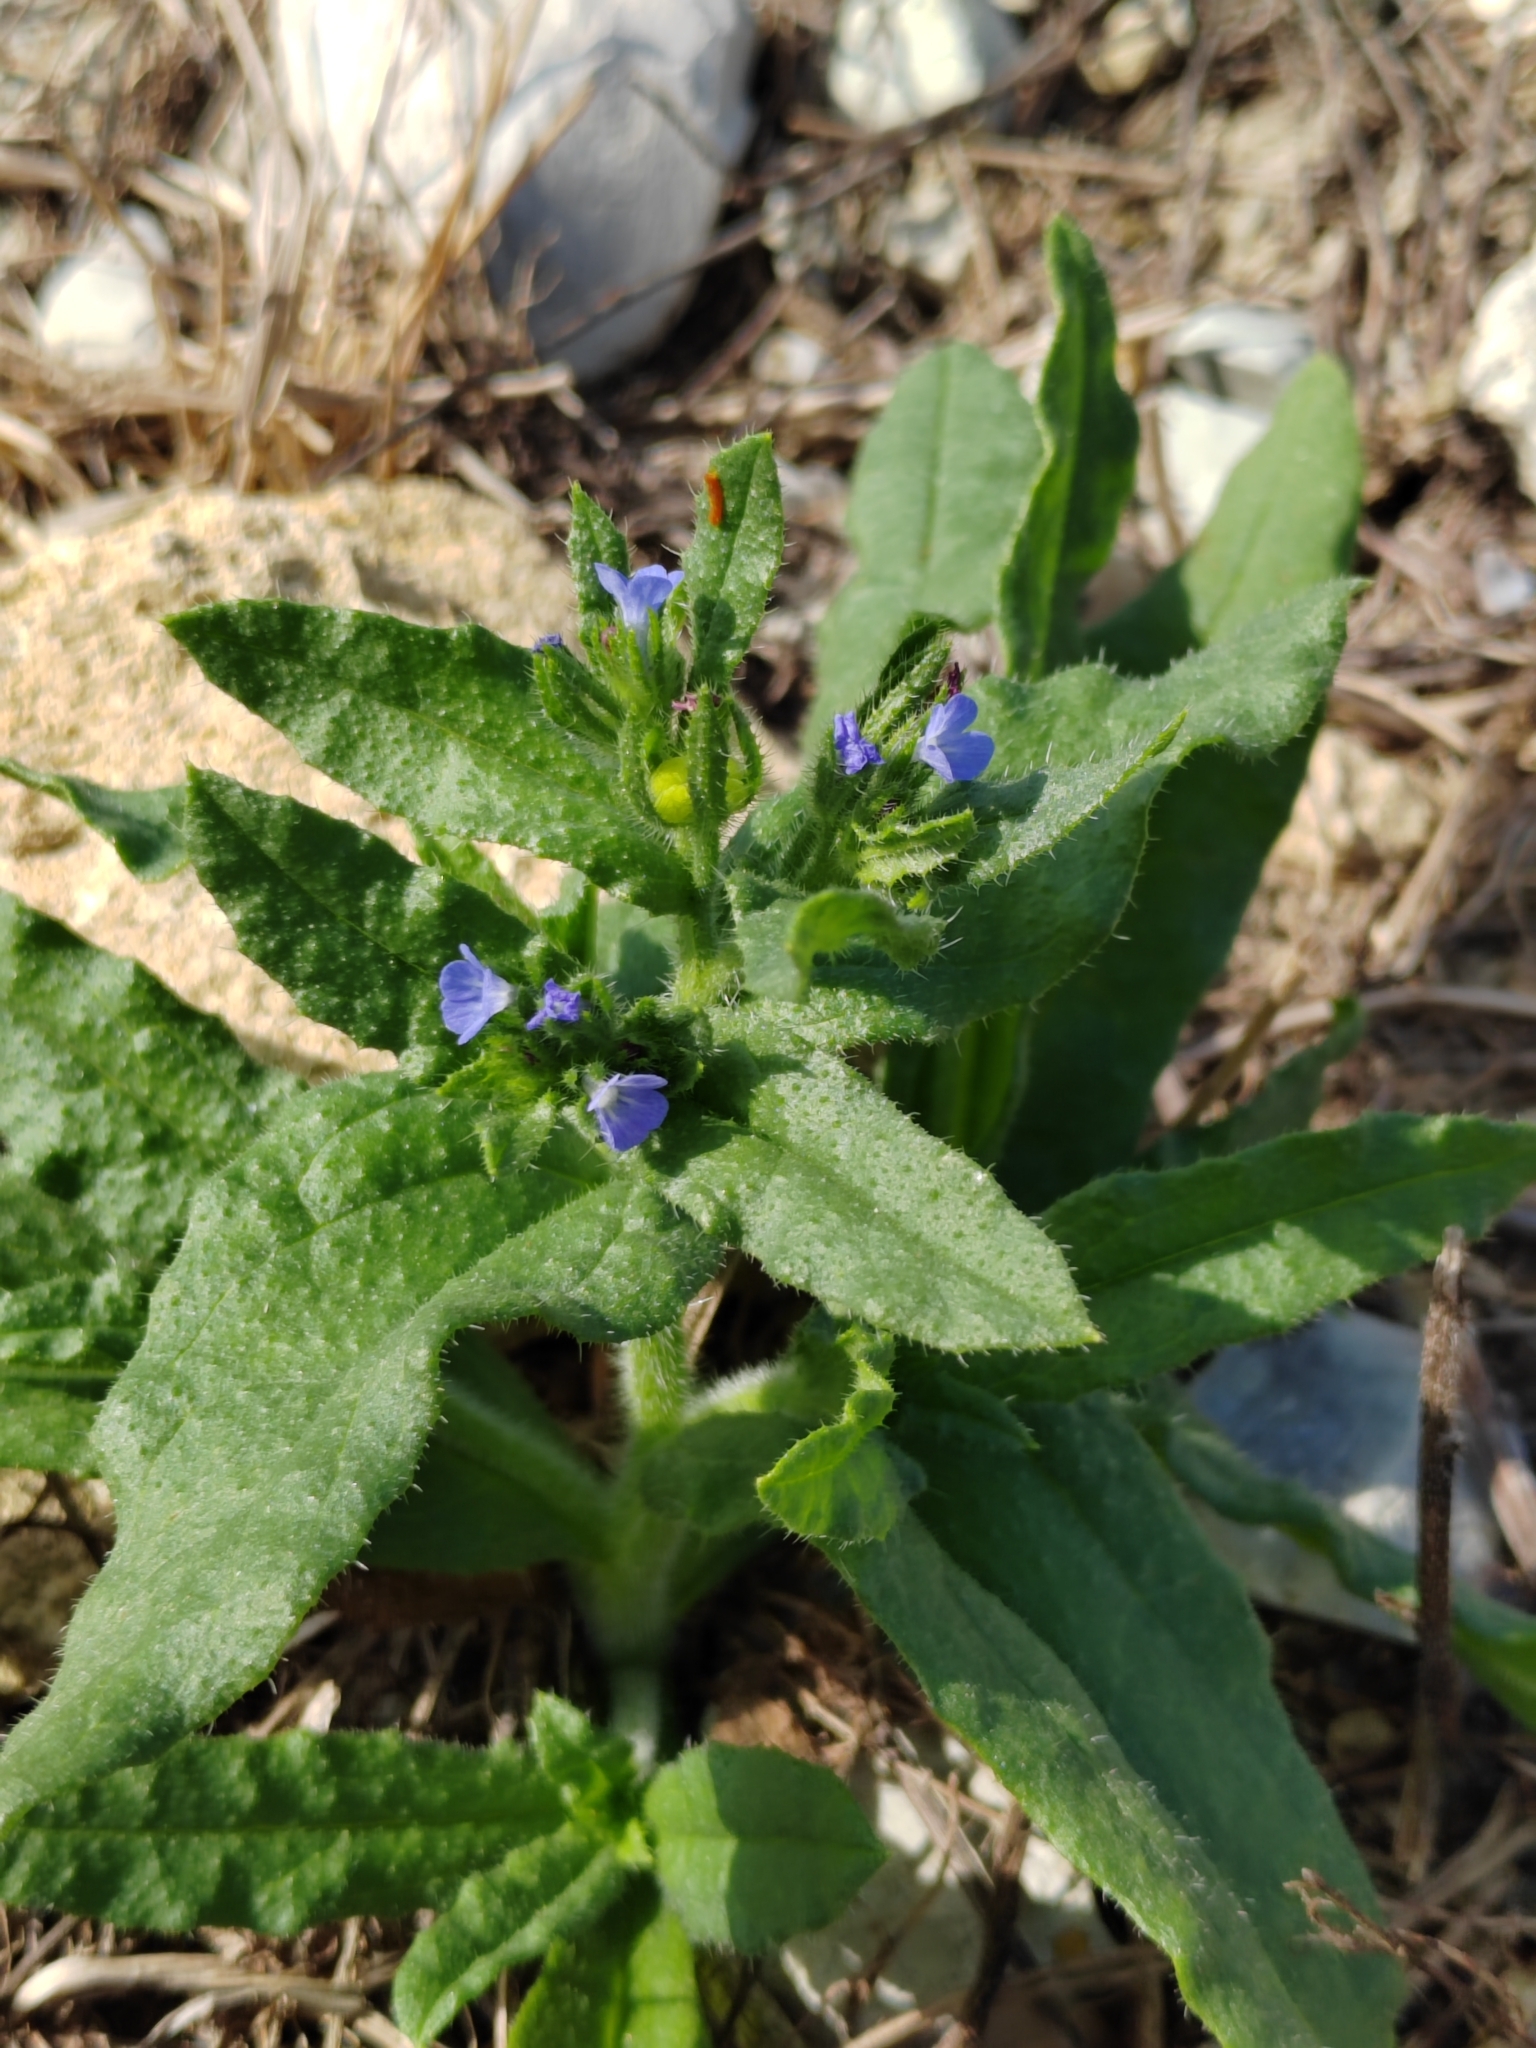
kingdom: Plantae
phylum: Tracheophyta
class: Magnoliopsida
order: Boraginales
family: Boraginaceae
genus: Lycopsis
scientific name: Lycopsis arvensis
